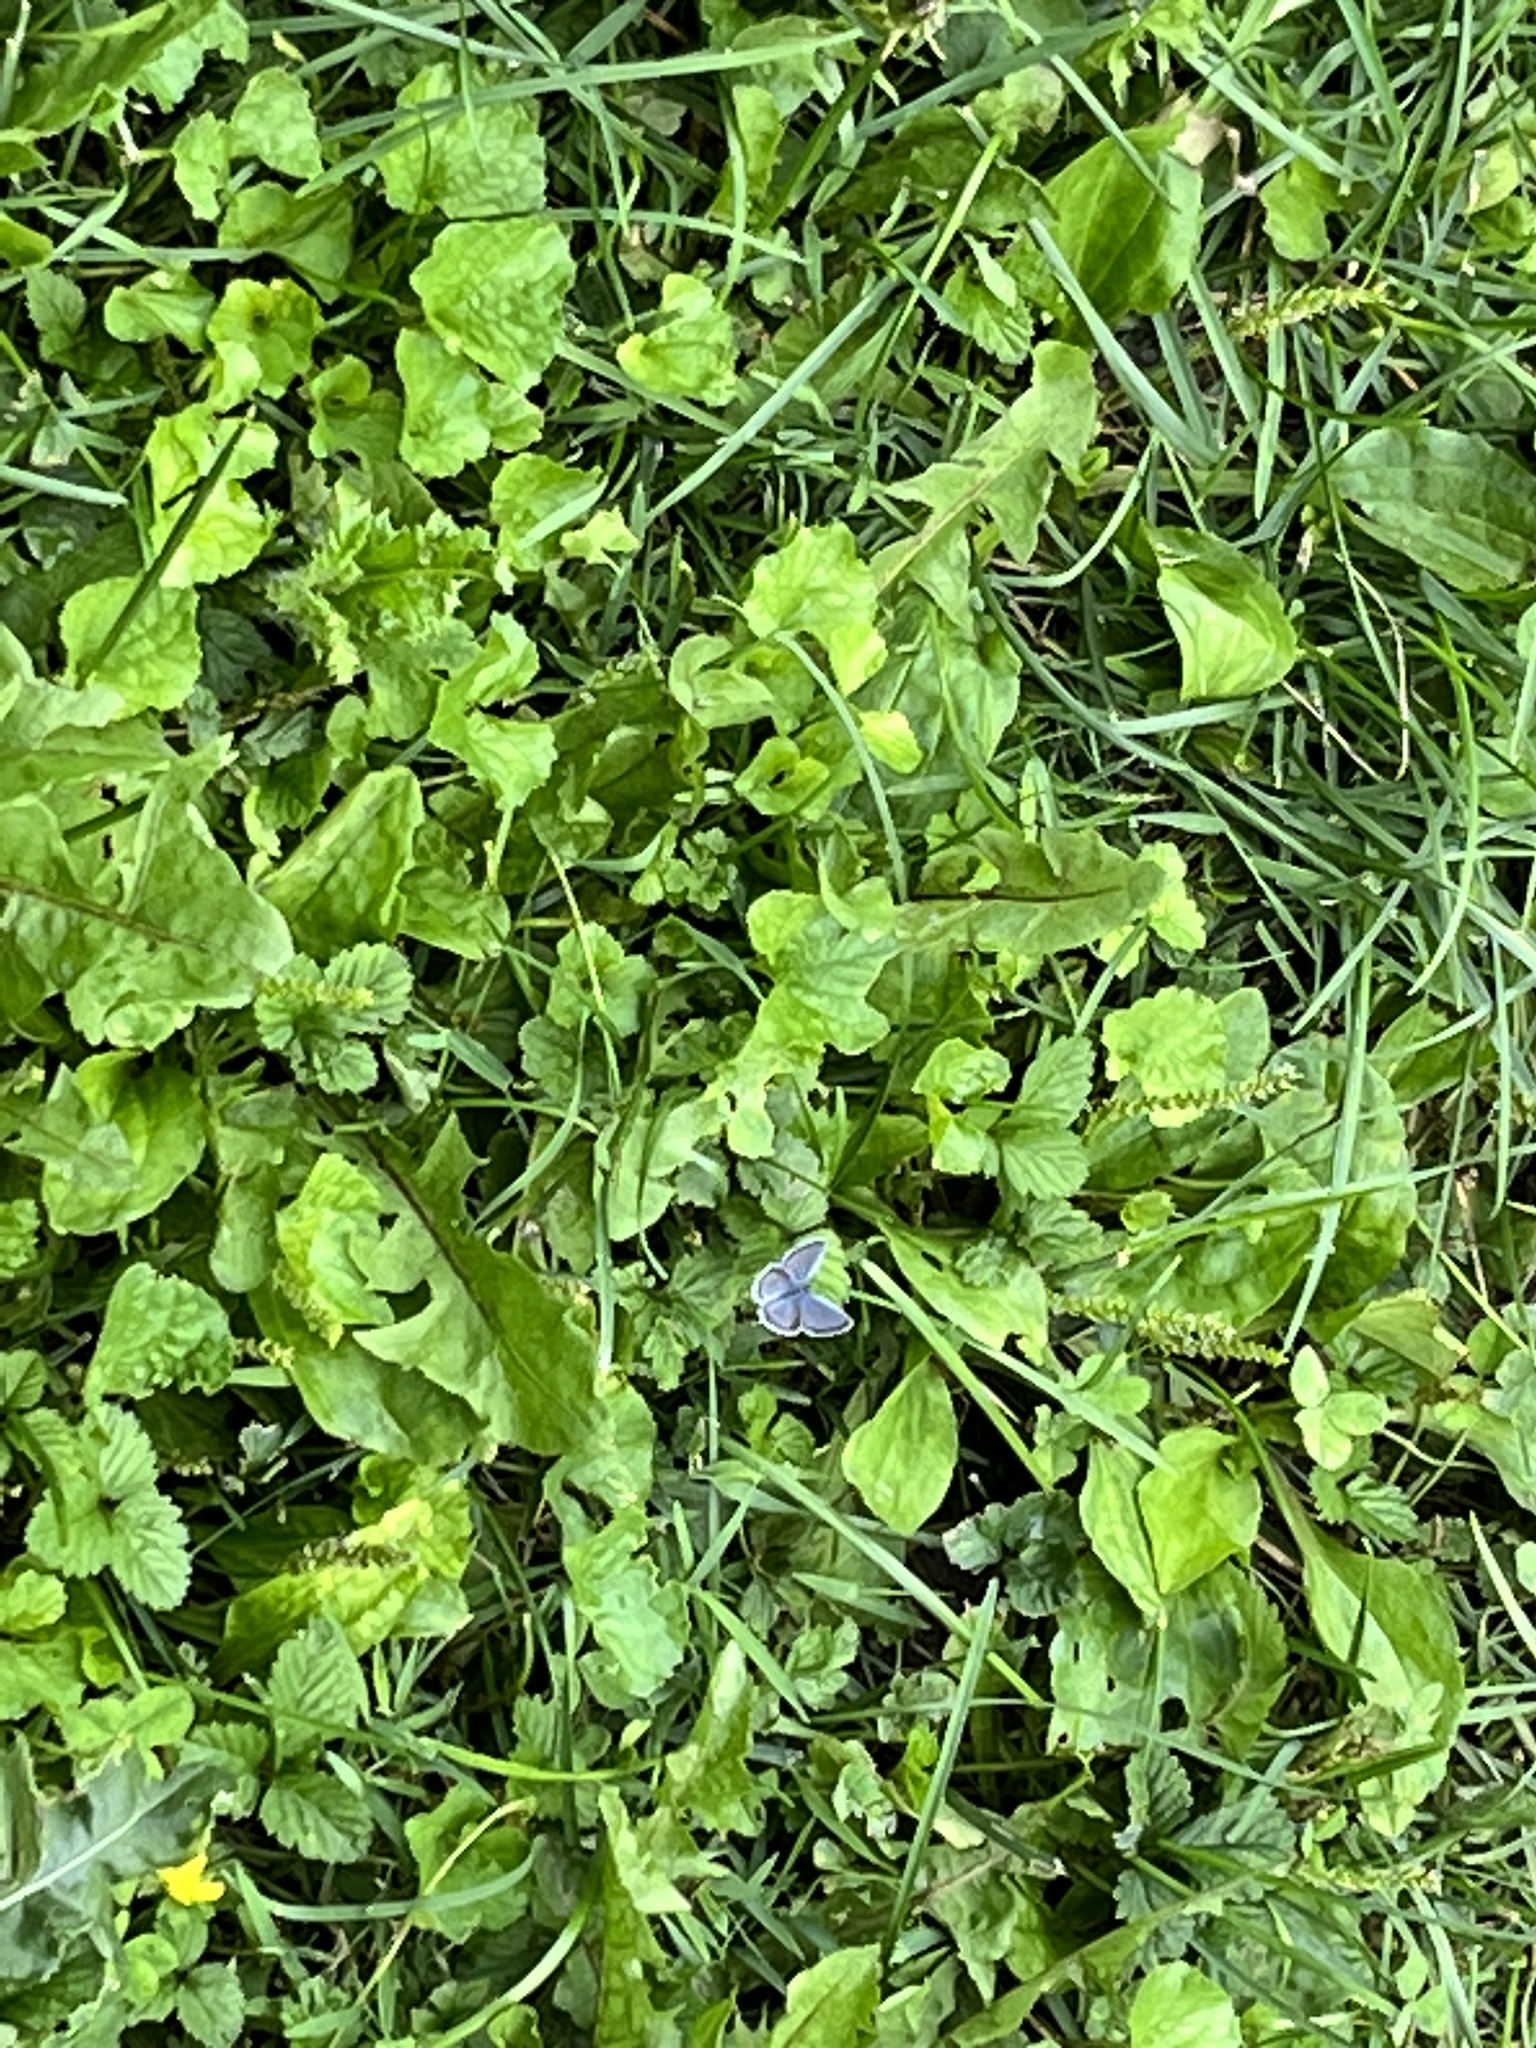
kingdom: Animalia
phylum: Arthropoda
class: Insecta
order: Lepidoptera
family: Lycaenidae
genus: Elkalyce
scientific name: Elkalyce comyntas
